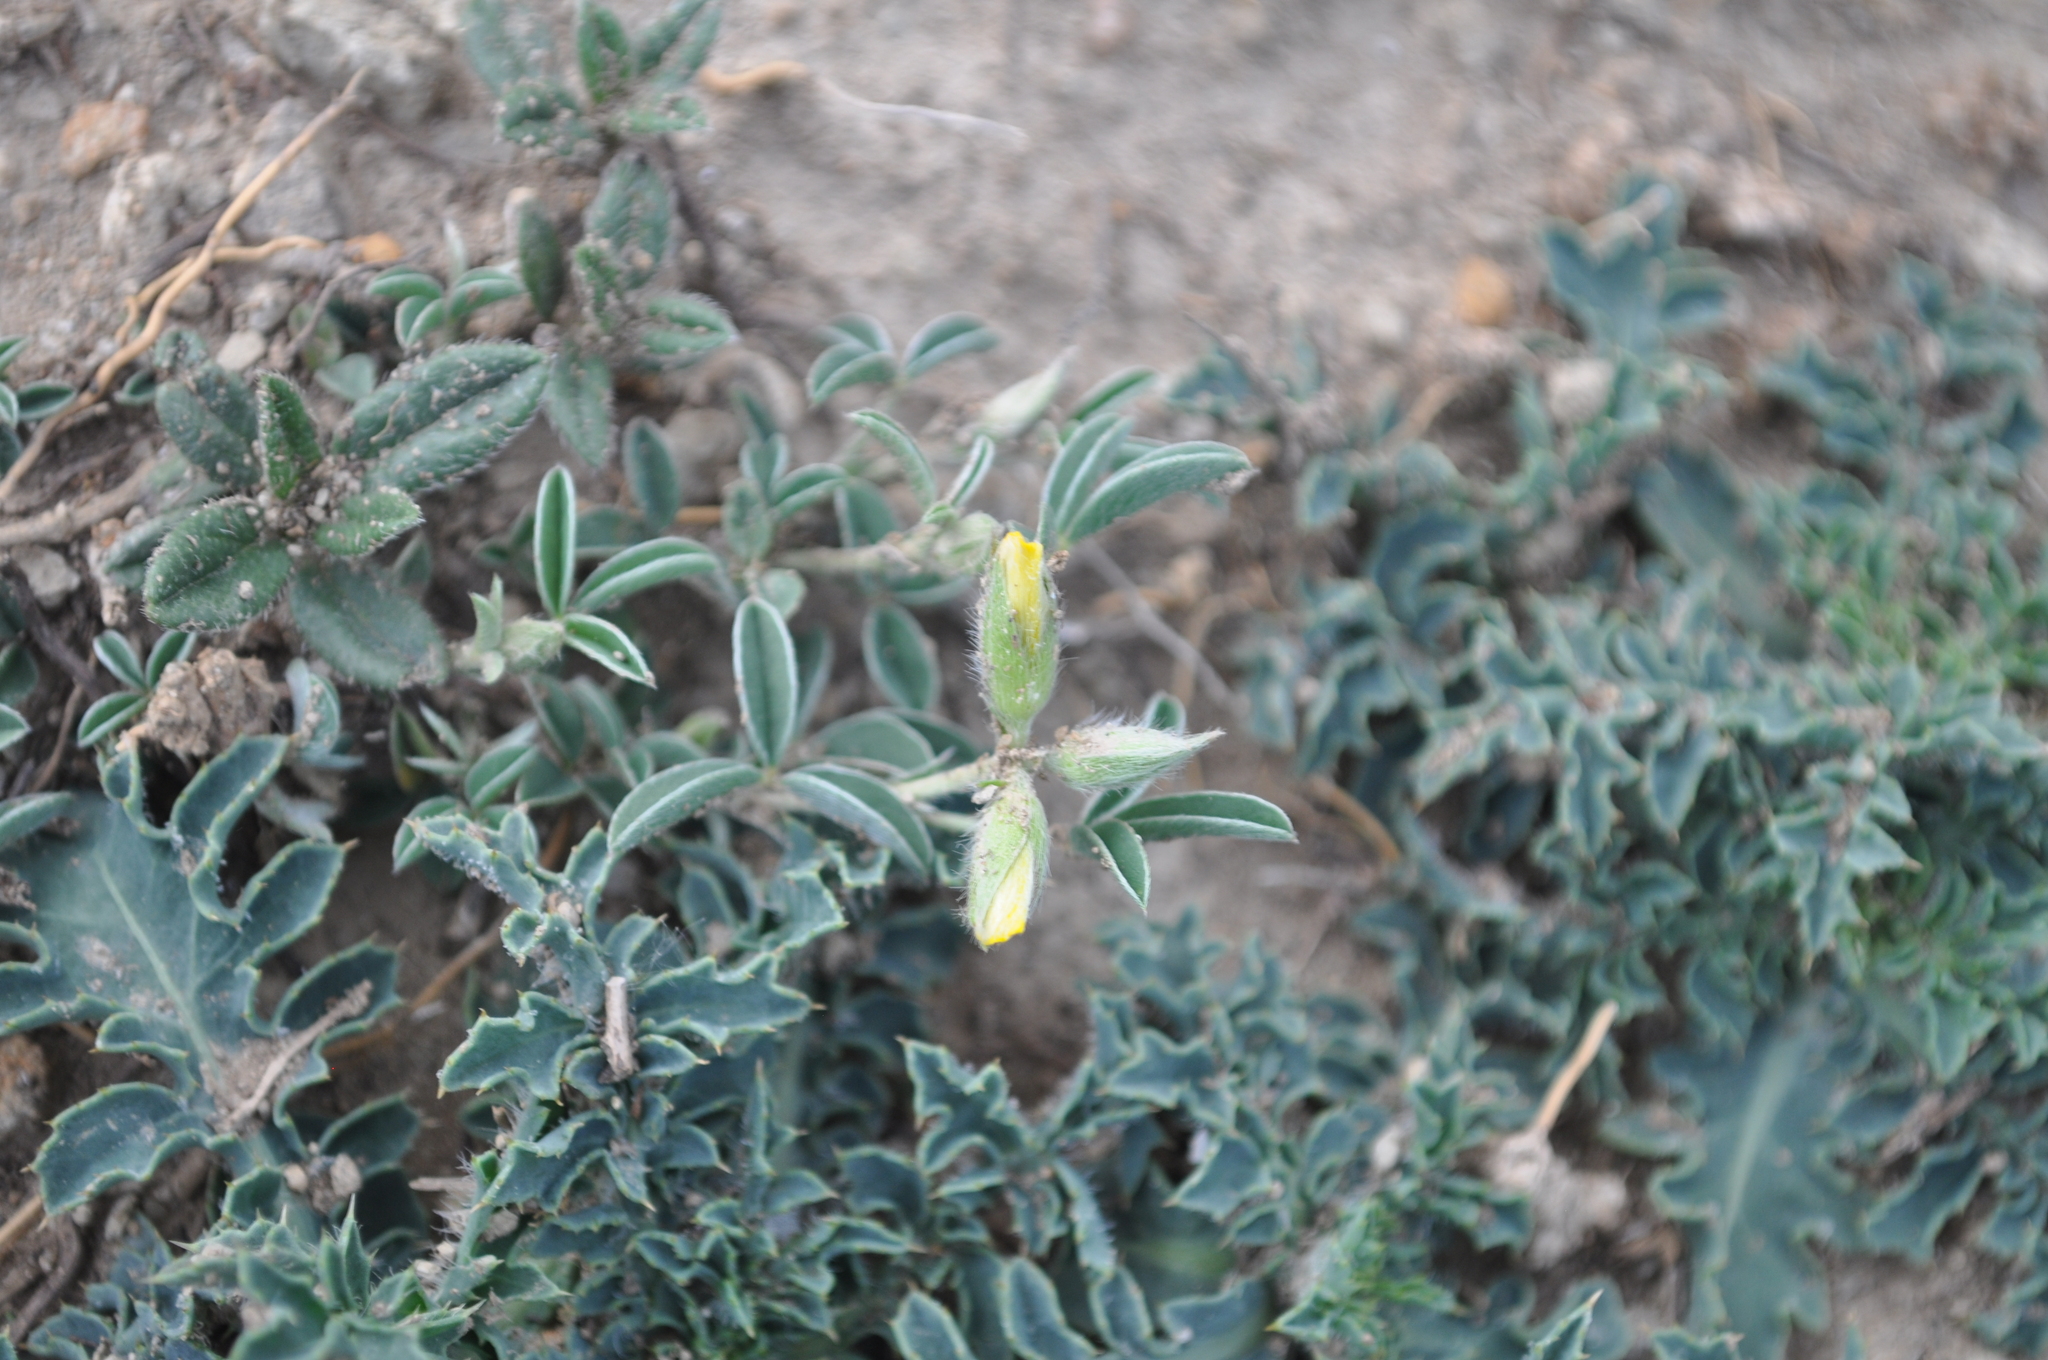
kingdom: Plantae
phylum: Tracheophyta
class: Magnoliopsida
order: Fabales
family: Fabaceae
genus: Argyrolobium
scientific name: Argyrolobium zanonii
